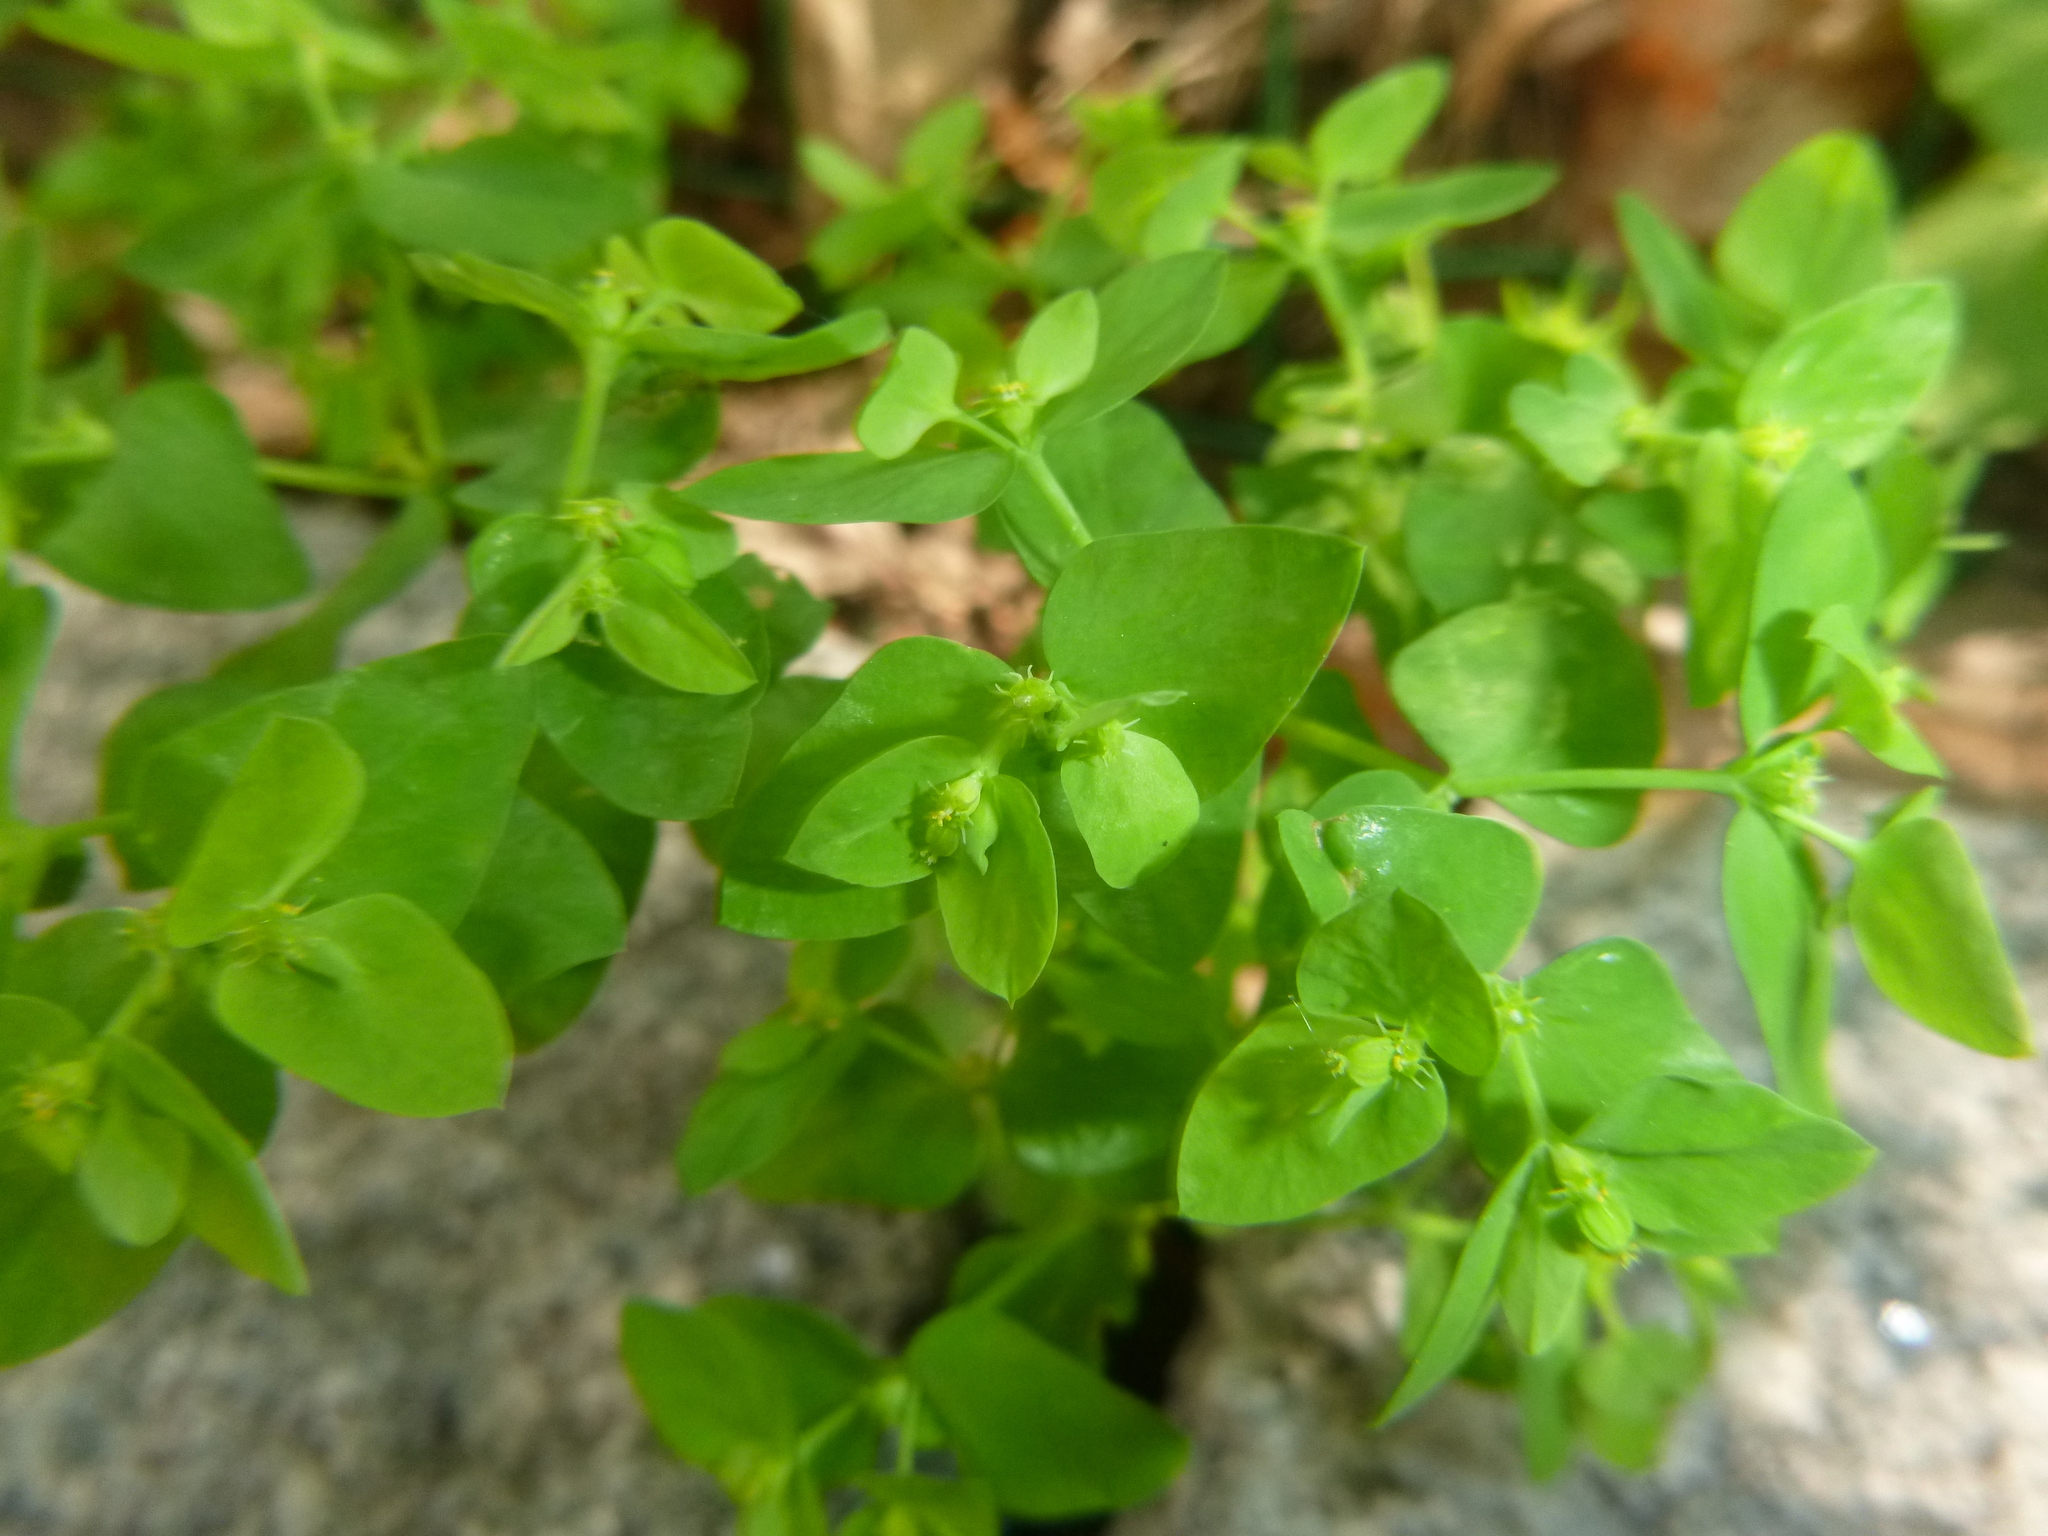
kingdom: Plantae
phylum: Tracheophyta
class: Magnoliopsida
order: Malpighiales
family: Euphorbiaceae
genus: Euphorbia
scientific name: Euphorbia peplus
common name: Petty spurge
